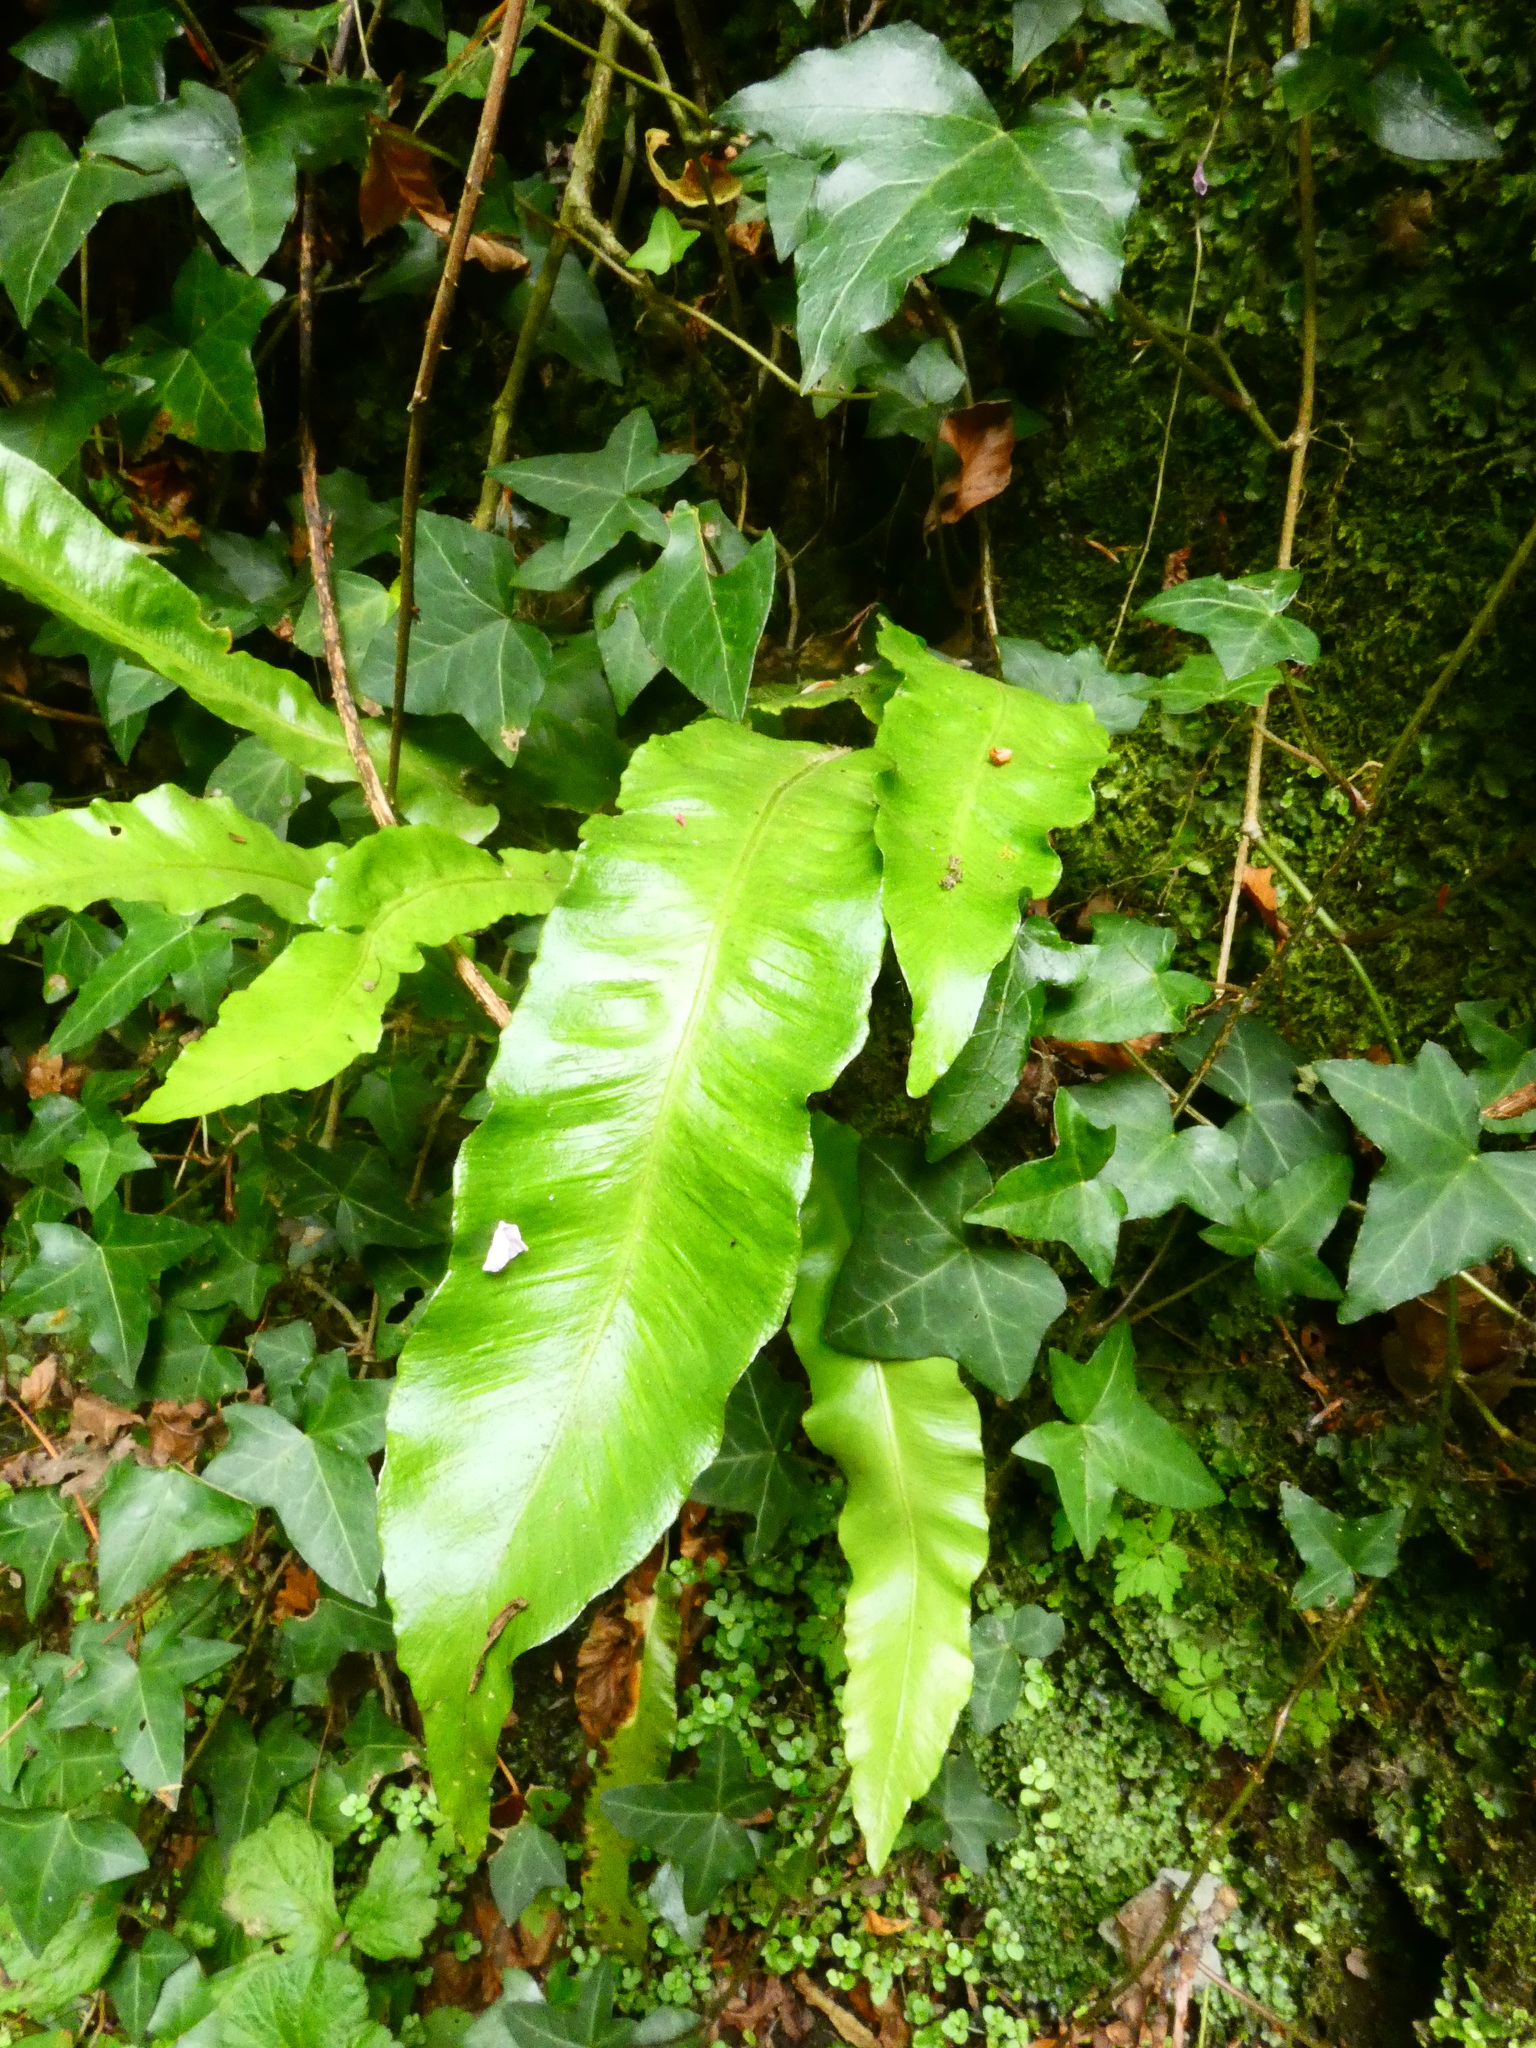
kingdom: Plantae
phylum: Tracheophyta
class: Polypodiopsida
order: Polypodiales
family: Aspleniaceae
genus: Asplenium
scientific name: Asplenium scolopendrium
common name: Hart's-tongue fern
